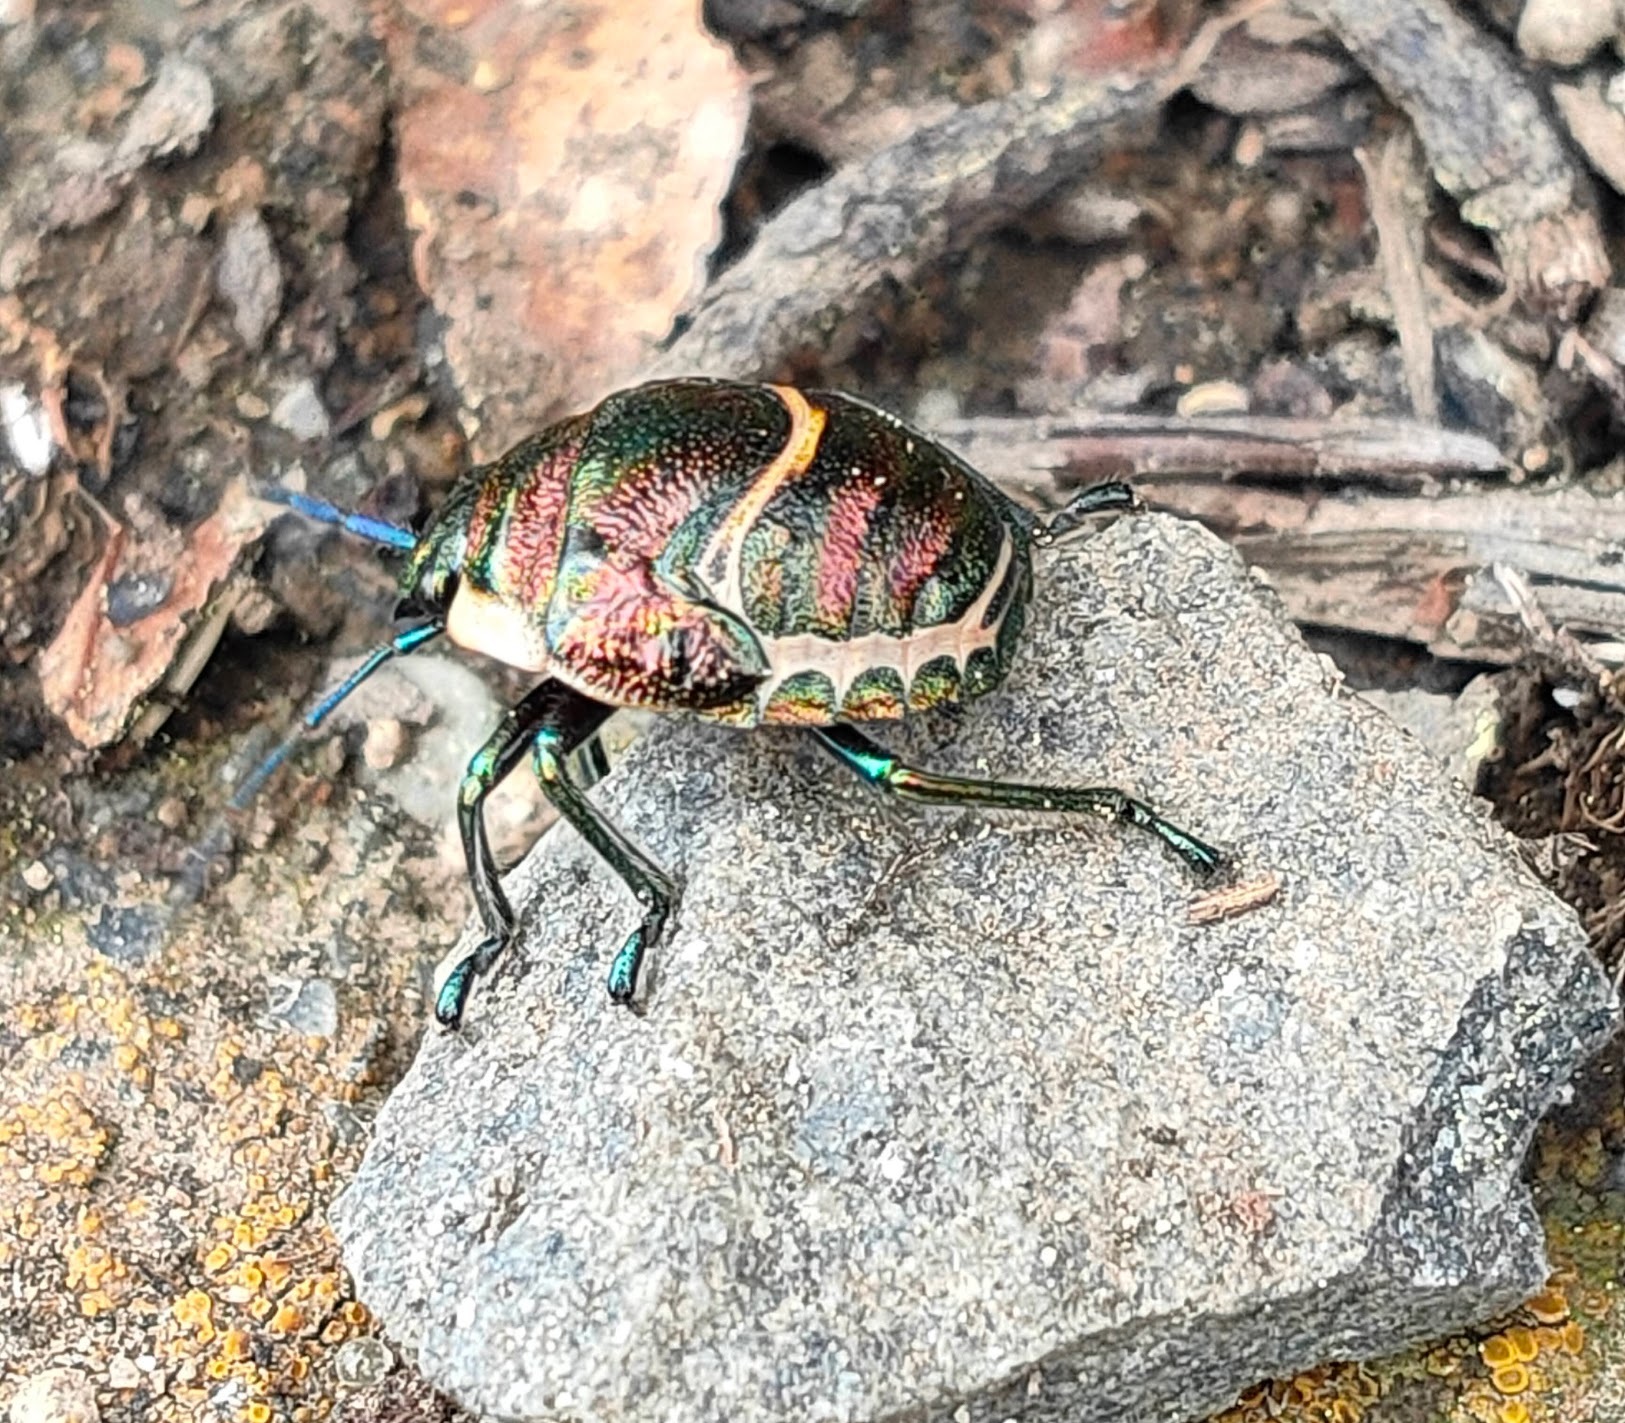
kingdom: Animalia
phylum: Arthropoda
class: Insecta
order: Hemiptera
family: Scutelleridae
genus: Poecilocoris
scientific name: Poecilocoris lewisi
